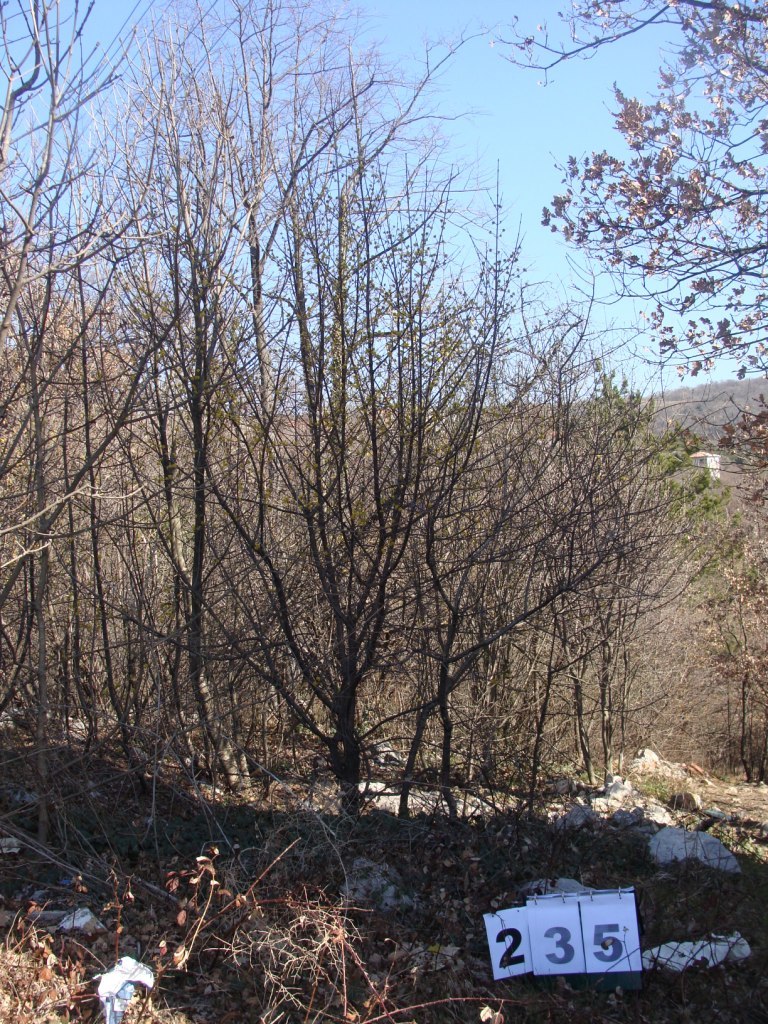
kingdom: Plantae
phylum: Tracheophyta
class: Magnoliopsida
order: Cornales
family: Cornaceae
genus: Cornus
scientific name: Cornus mas
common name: Cornelian-cherry
